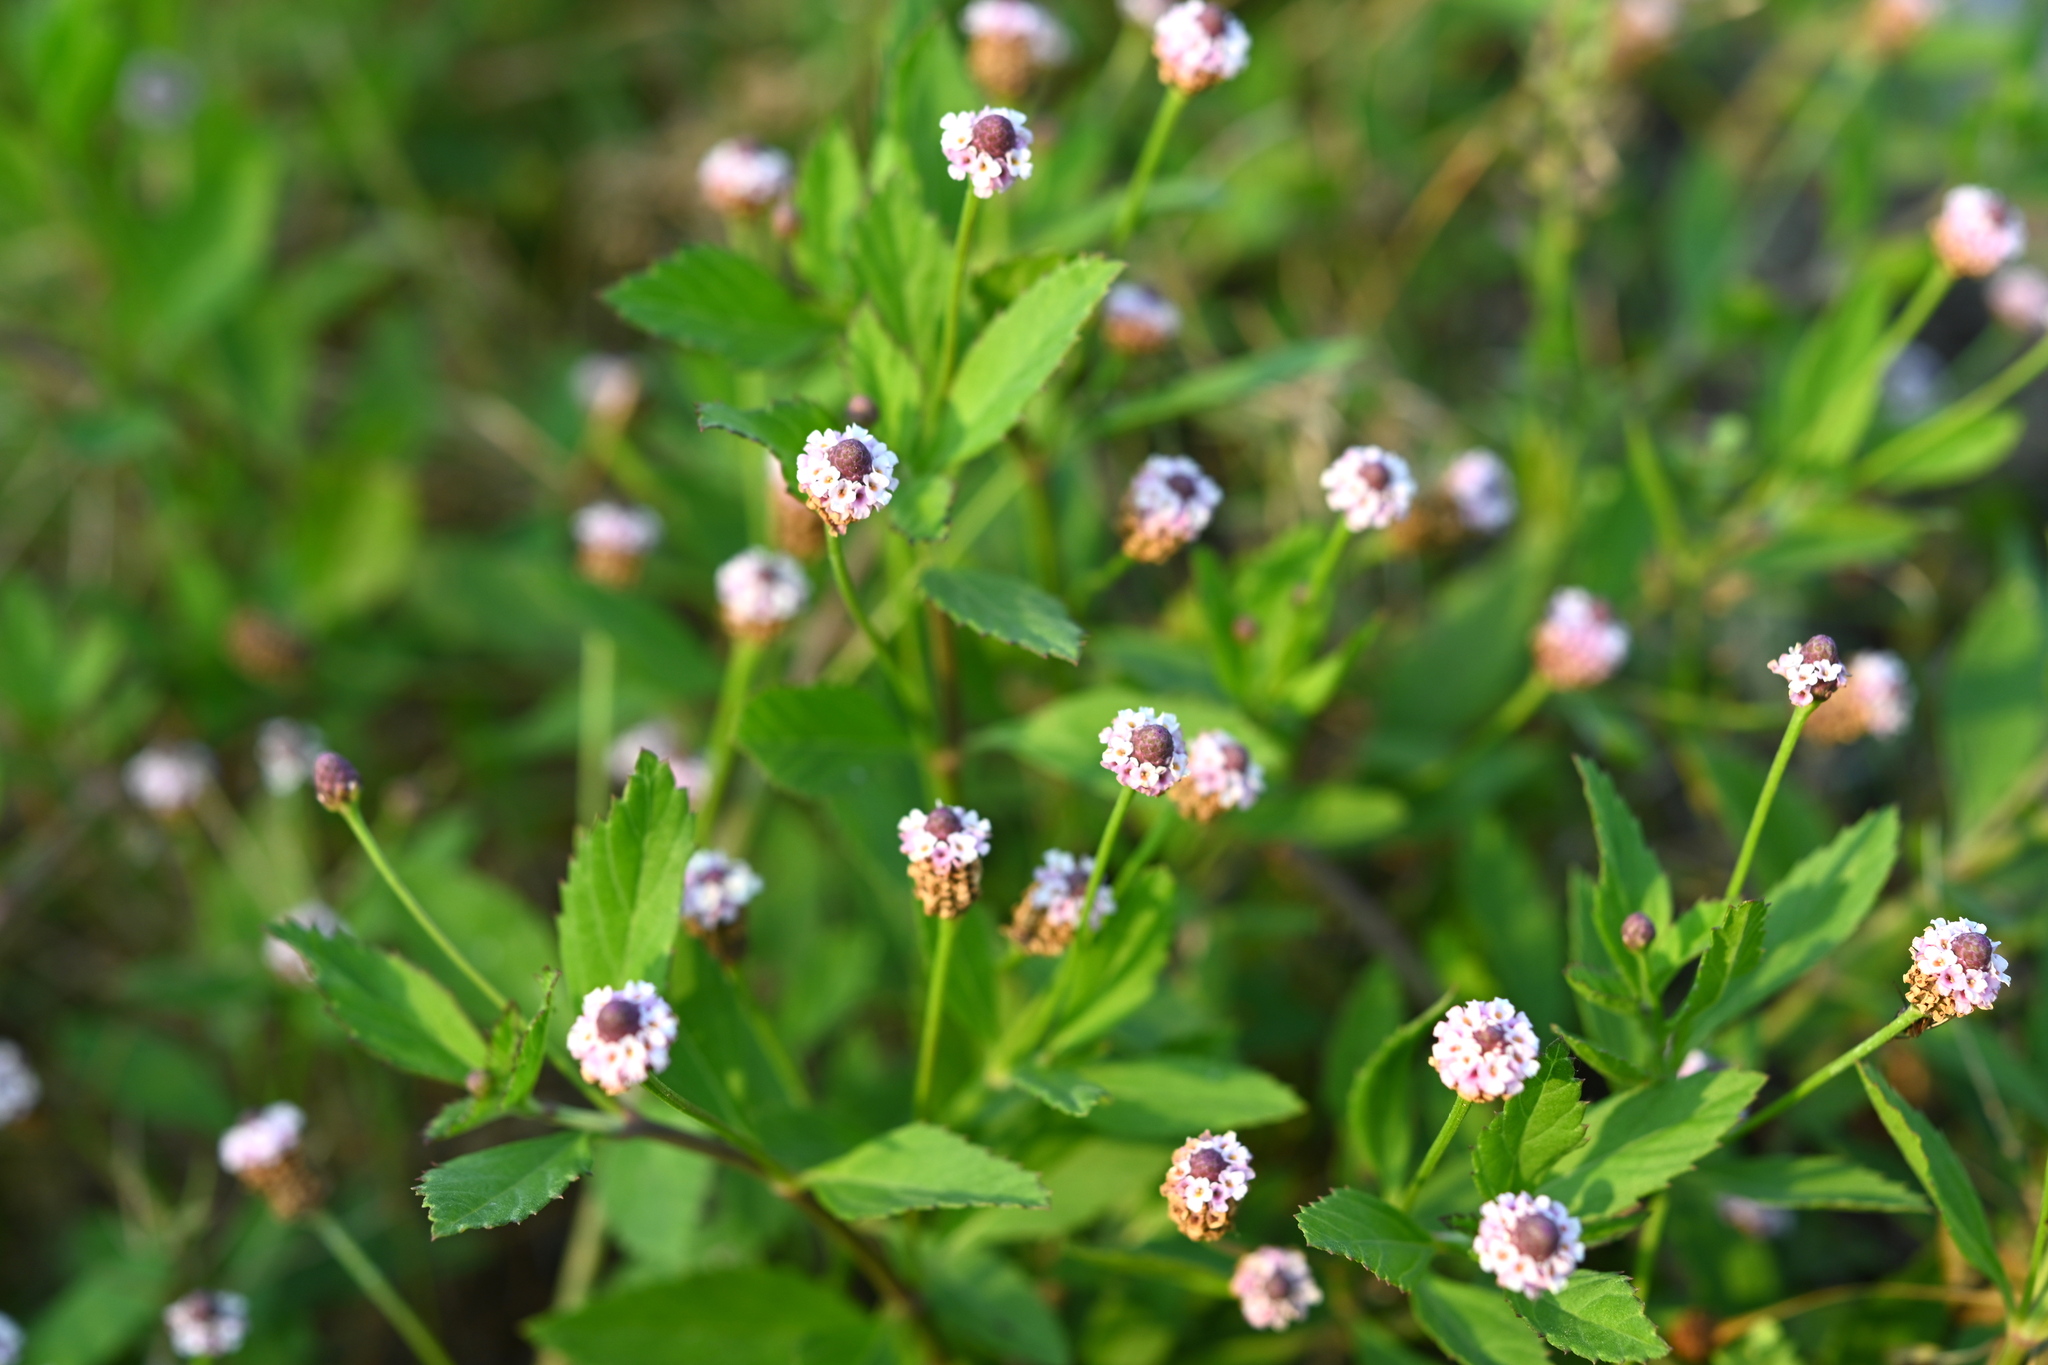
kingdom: Plantae
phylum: Tracheophyta
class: Magnoliopsida
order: Lamiales
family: Verbenaceae
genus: Phyla
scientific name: Phyla lanceolata
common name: Northern fogfruit
